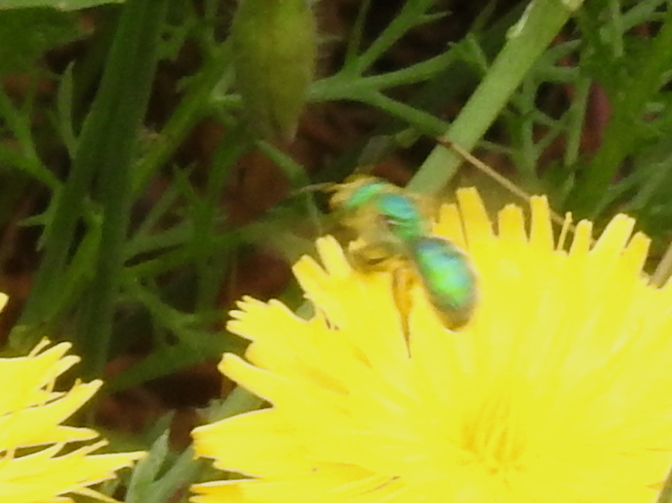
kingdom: Animalia
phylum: Arthropoda
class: Insecta
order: Hymenoptera
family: Halictidae
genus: Agapostemon
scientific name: Agapostemon texanus
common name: Texas striped sweat bee
